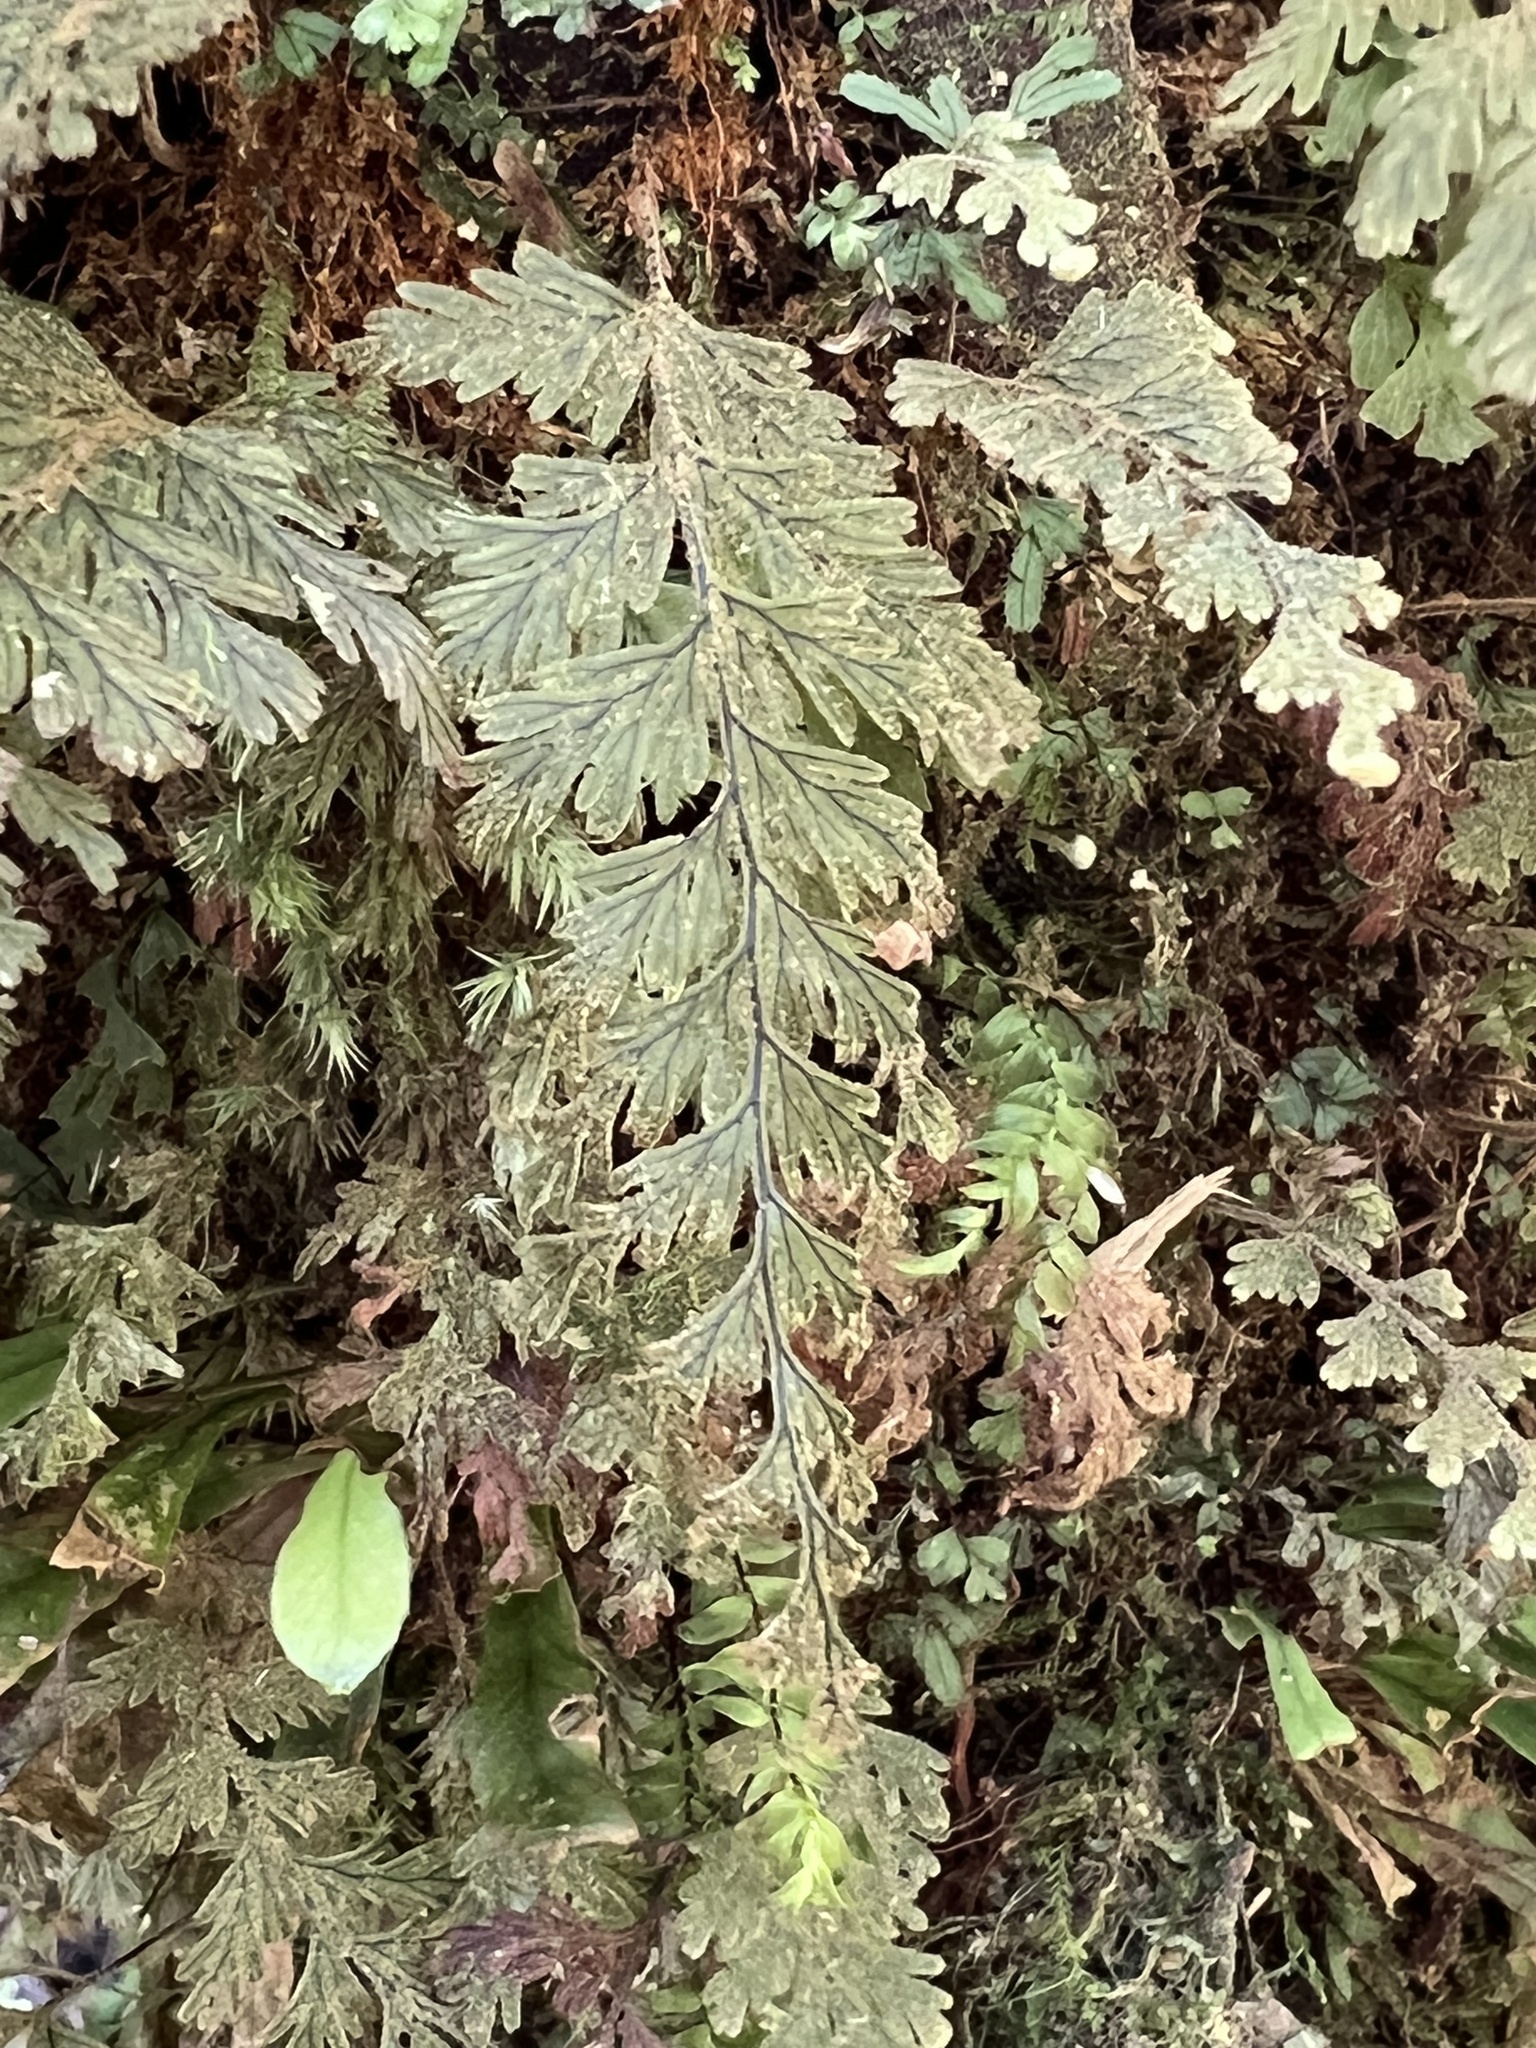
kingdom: Plantae
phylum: Tracheophyta
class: Polypodiopsida
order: Hymenophyllales
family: Hymenophyllaceae
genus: Hymenophyllum
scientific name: Hymenophyllum frankliniae
